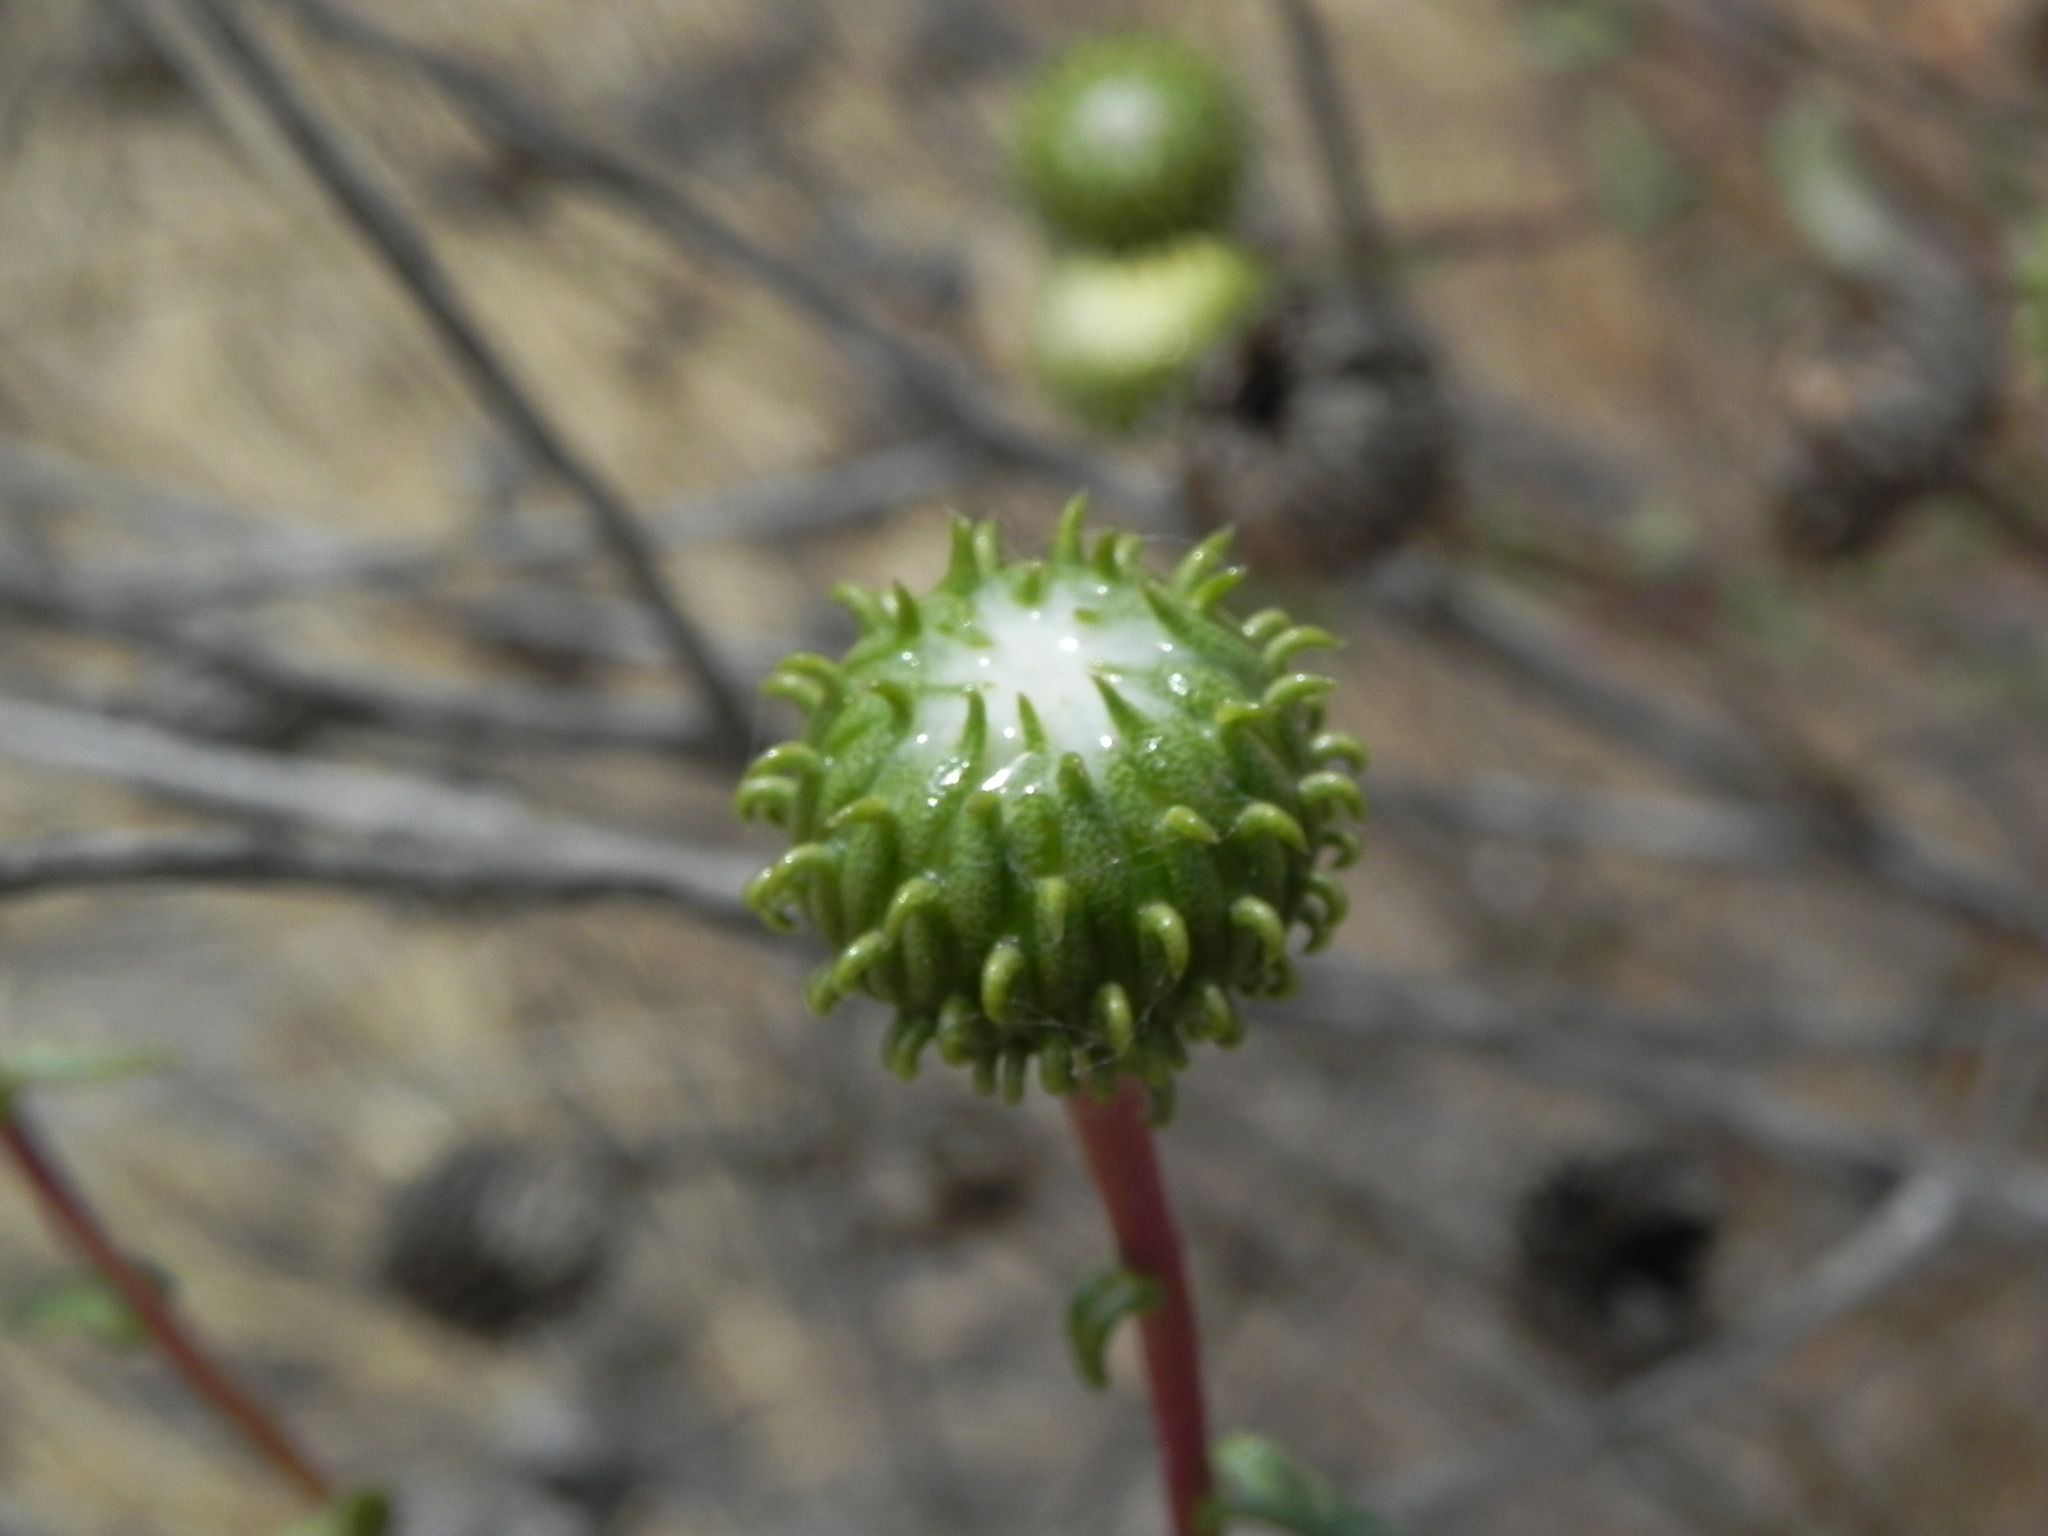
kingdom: Plantae
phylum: Tracheophyta
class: Magnoliopsida
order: Asterales
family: Asteraceae
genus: Grindelia
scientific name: Grindelia hirsutula
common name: Hairy gumweed
